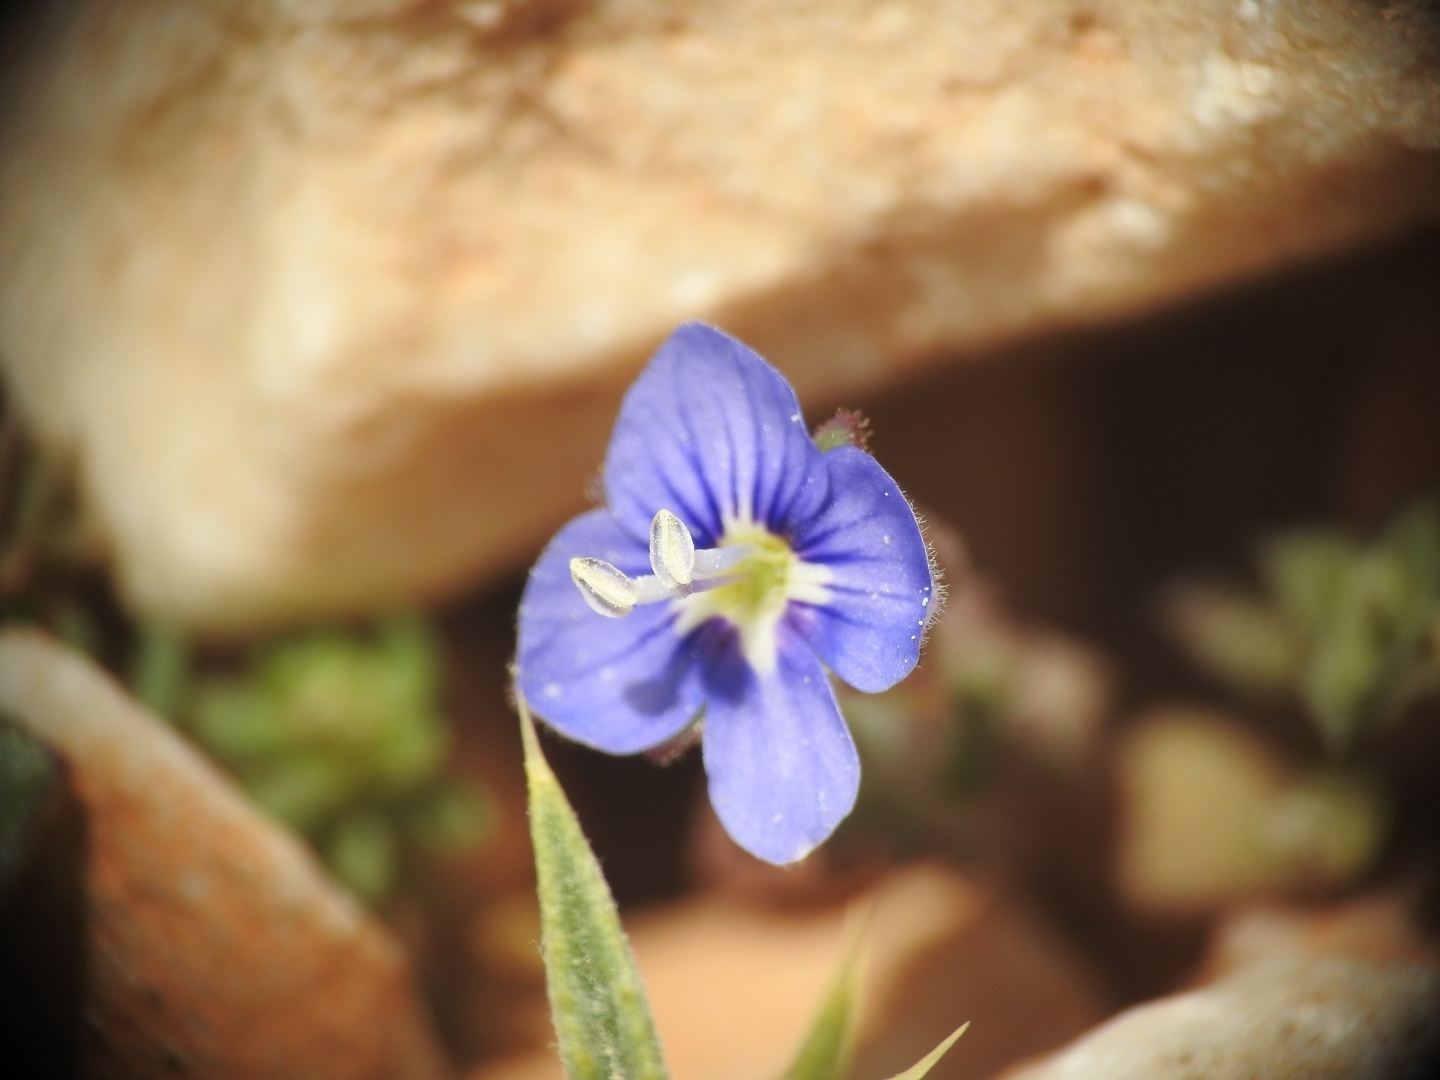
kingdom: Plantae
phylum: Tracheophyta
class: Magnoliopsida
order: Lamiales
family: Plantaginaceae
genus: Veronica
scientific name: Veronica glauca
